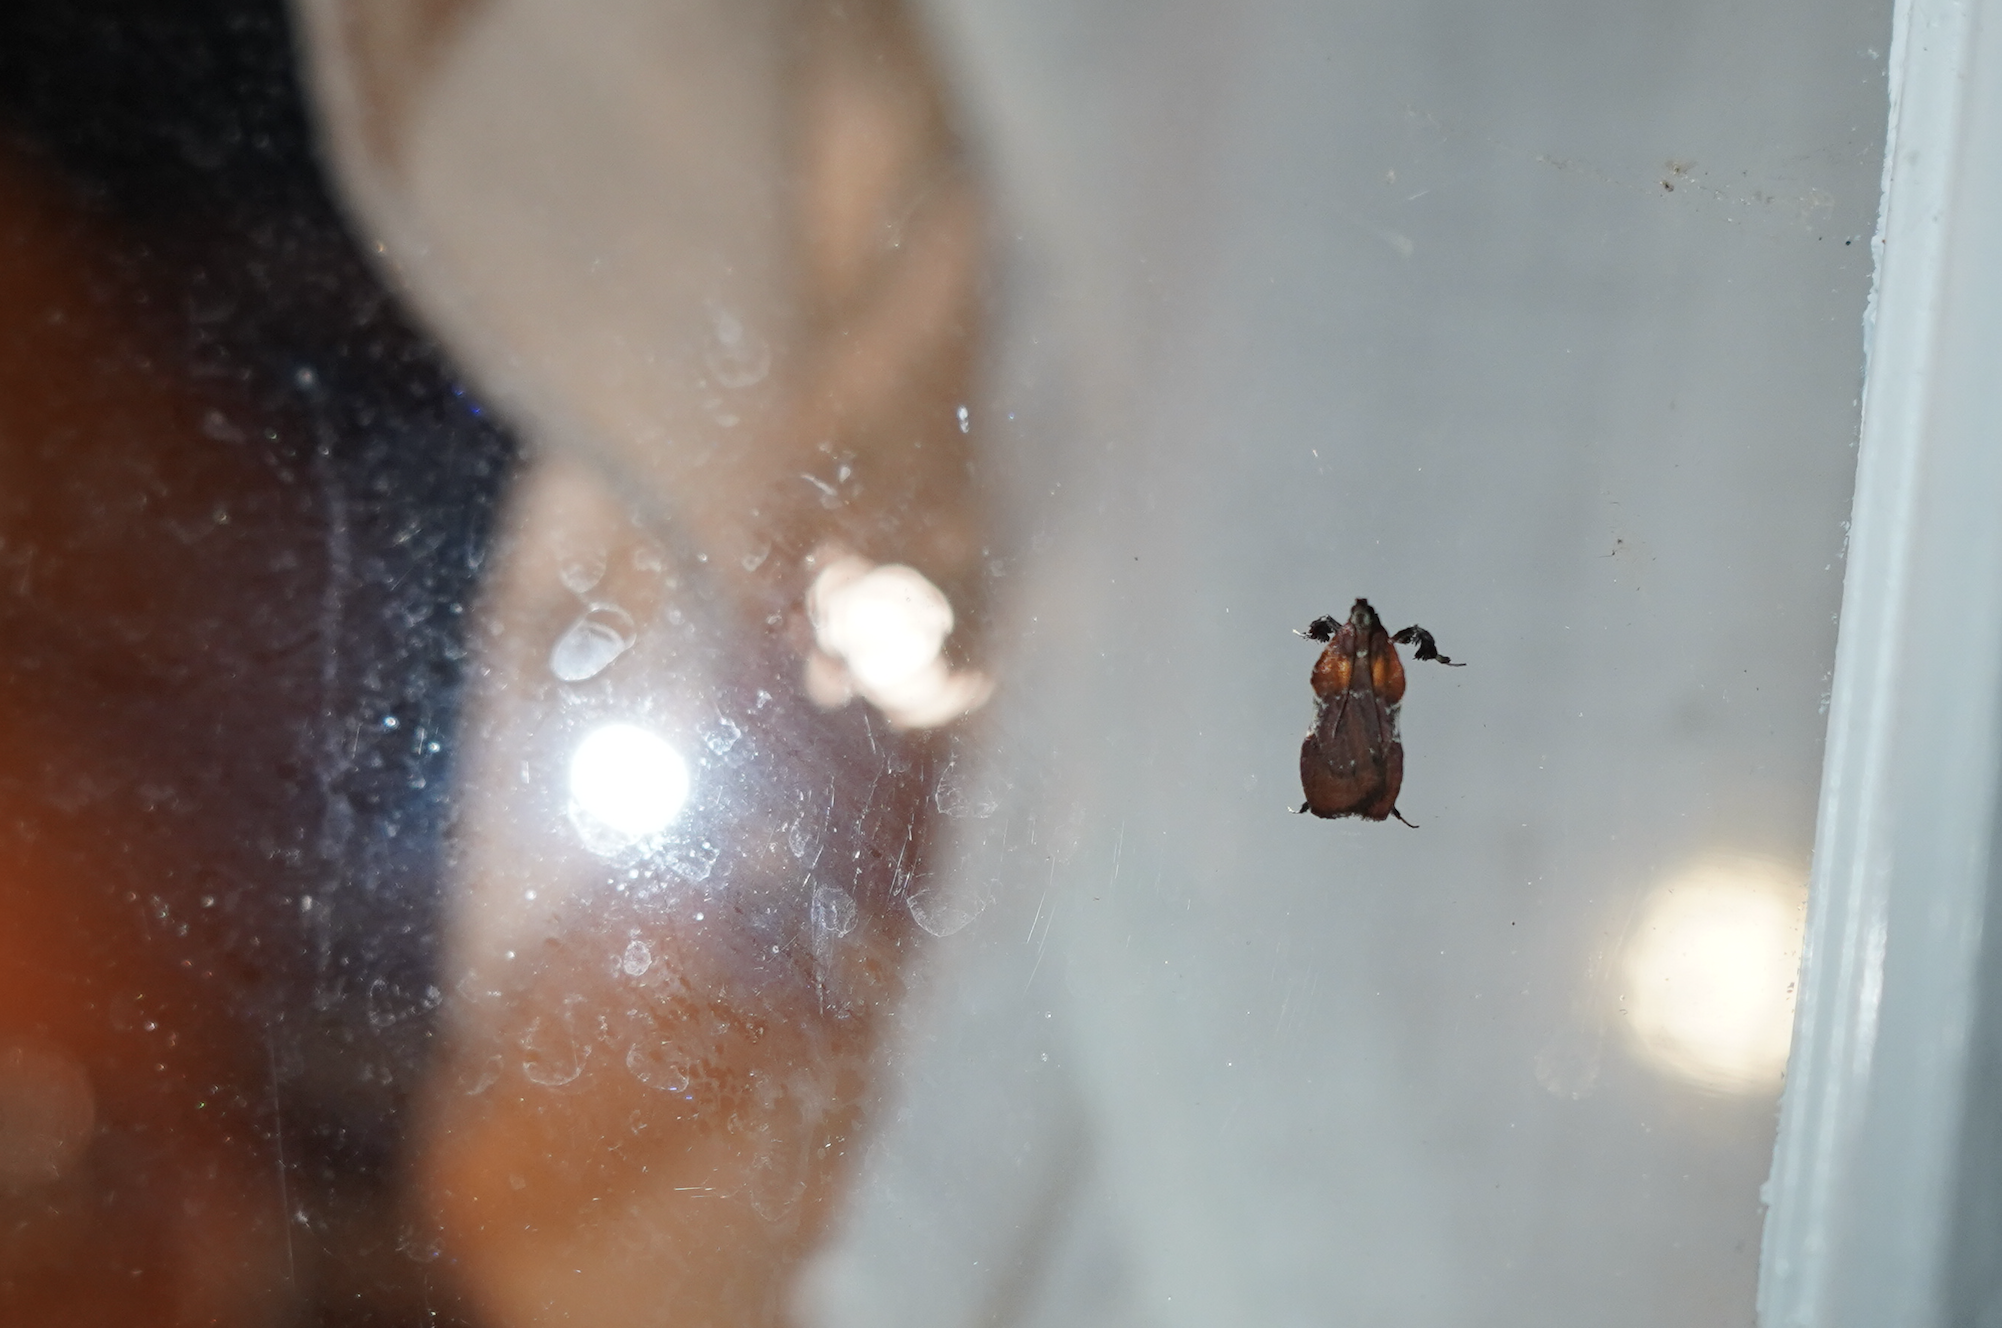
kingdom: Animalia
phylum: Arthropoda
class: Insecta
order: Lepidoptera
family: Pyralidae
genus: Galasa
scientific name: Galasa nigrinodis
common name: Boxwood leaftier moth
